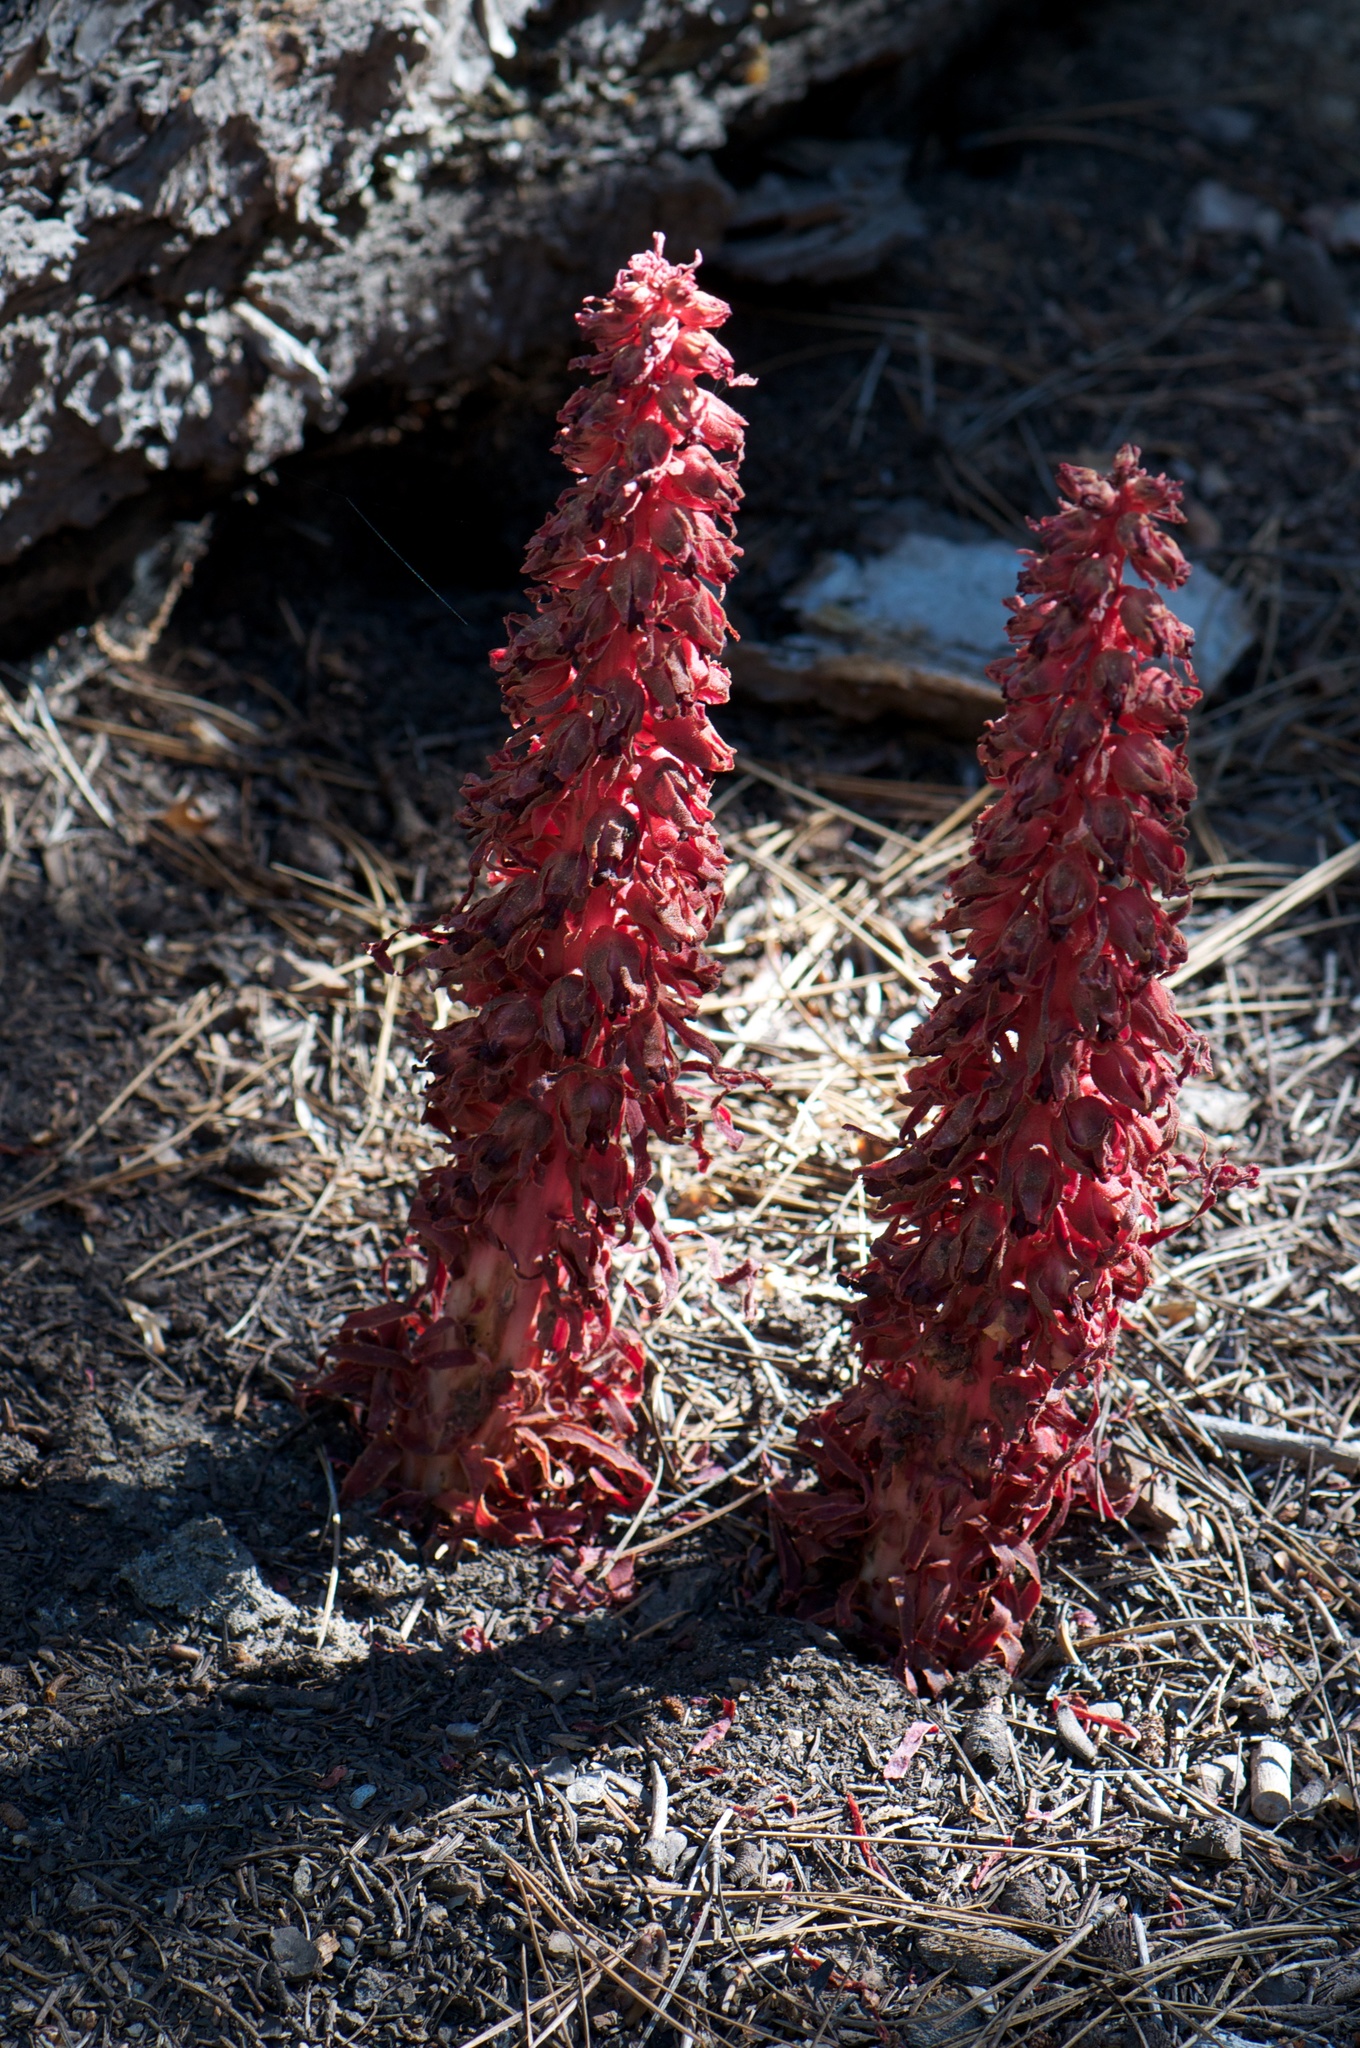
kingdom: Plantae
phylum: Tracheophyta
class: Magnoliopsida
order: Ericales
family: Ericaceae
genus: Sarcodes
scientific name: Sarcodes sanguinea
